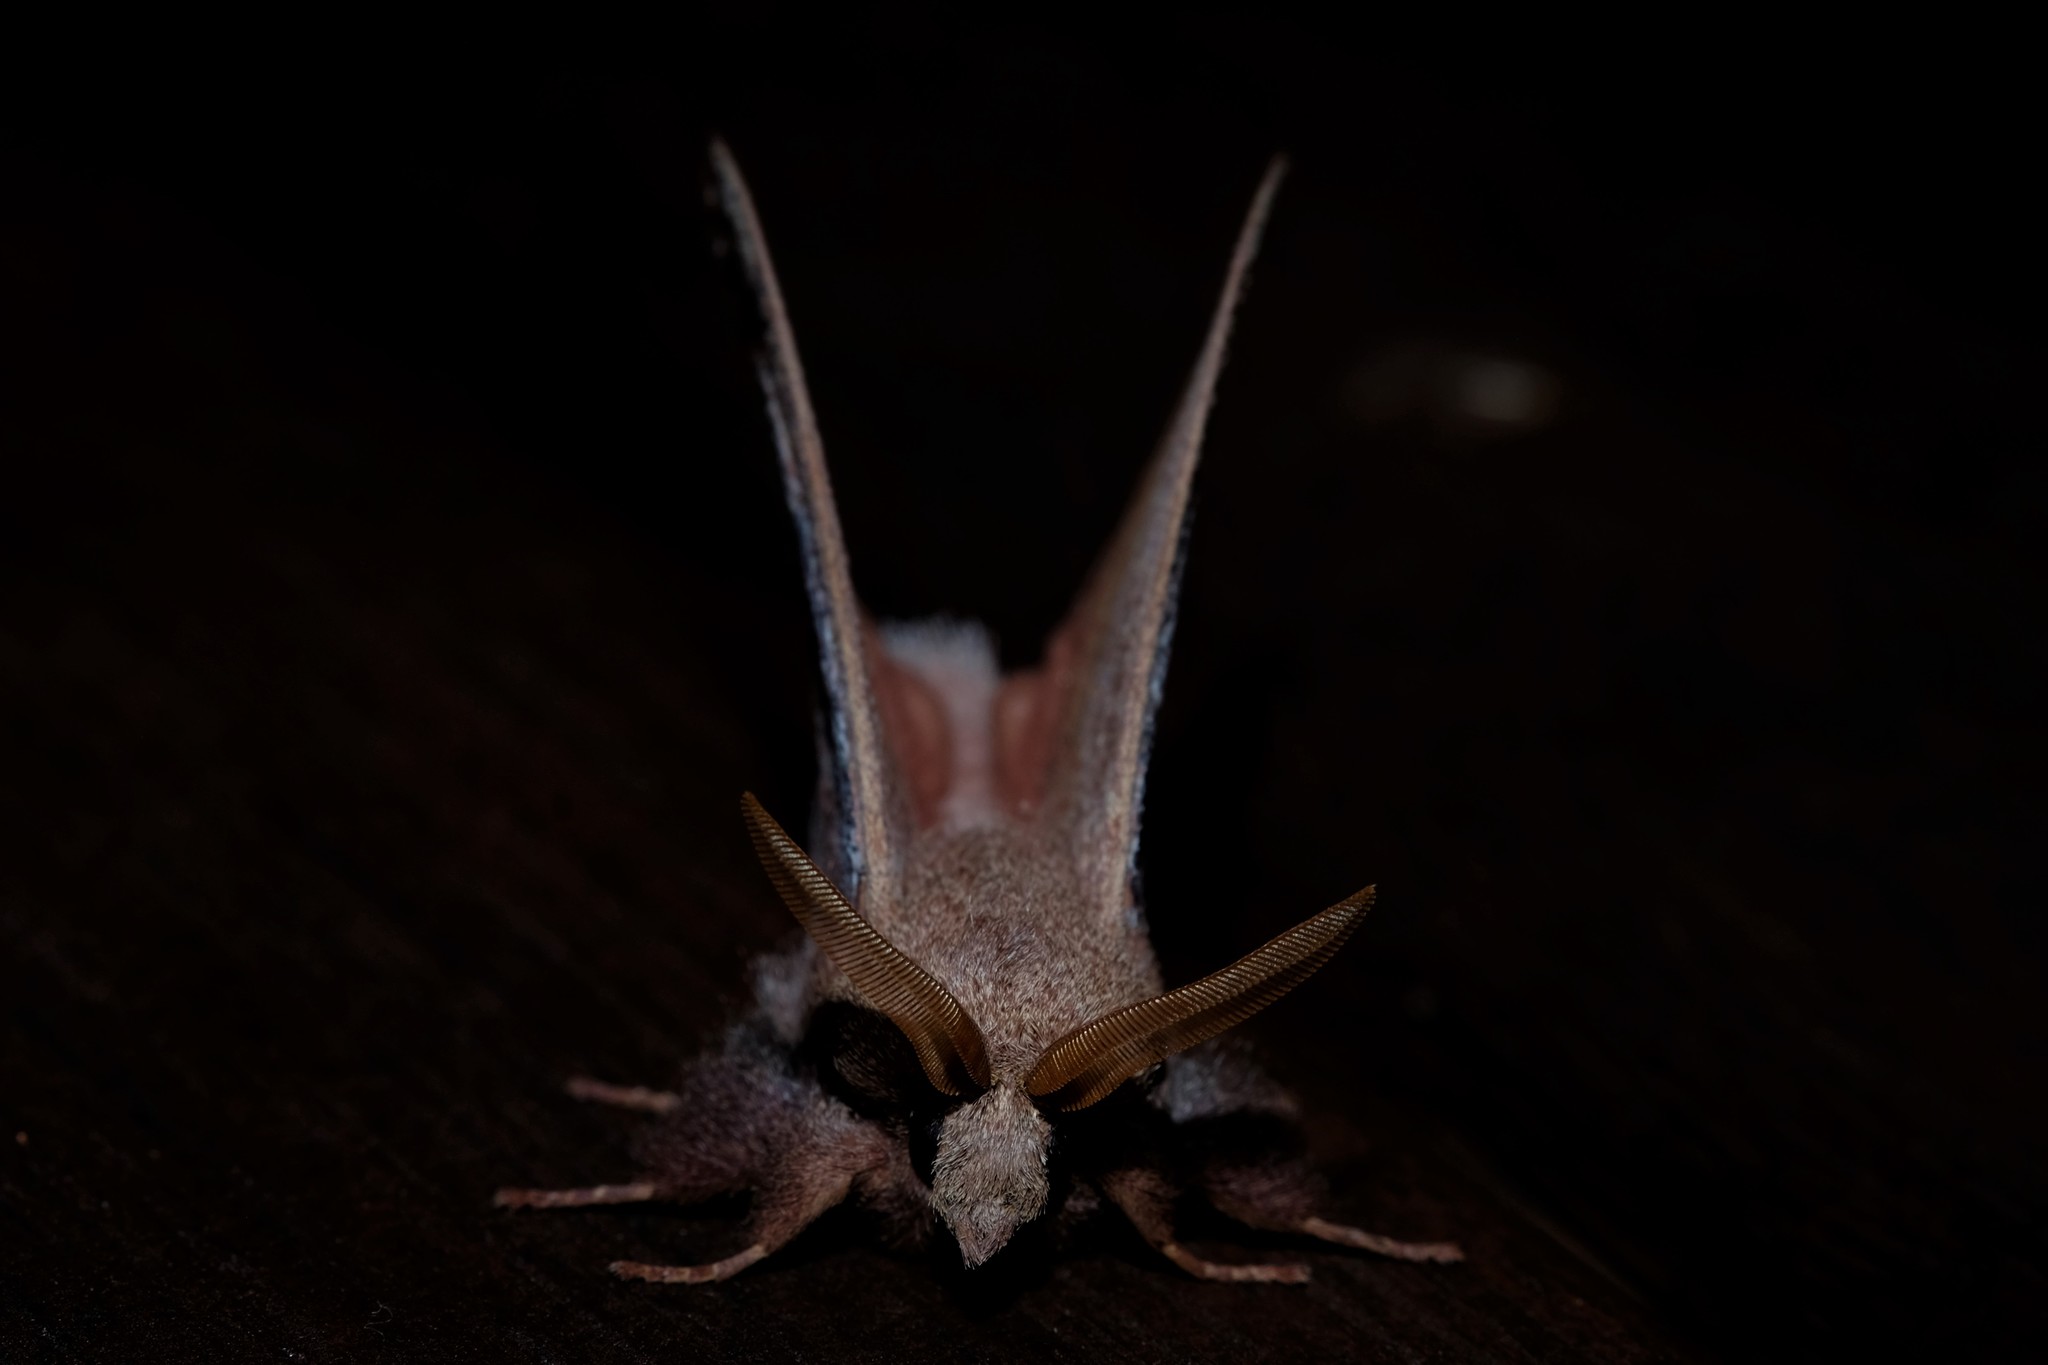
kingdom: Animalia
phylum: Arthropoda
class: Insecta
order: Lepidoptera
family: Lasiocampidae
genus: Pararguda
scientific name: Pararguda
